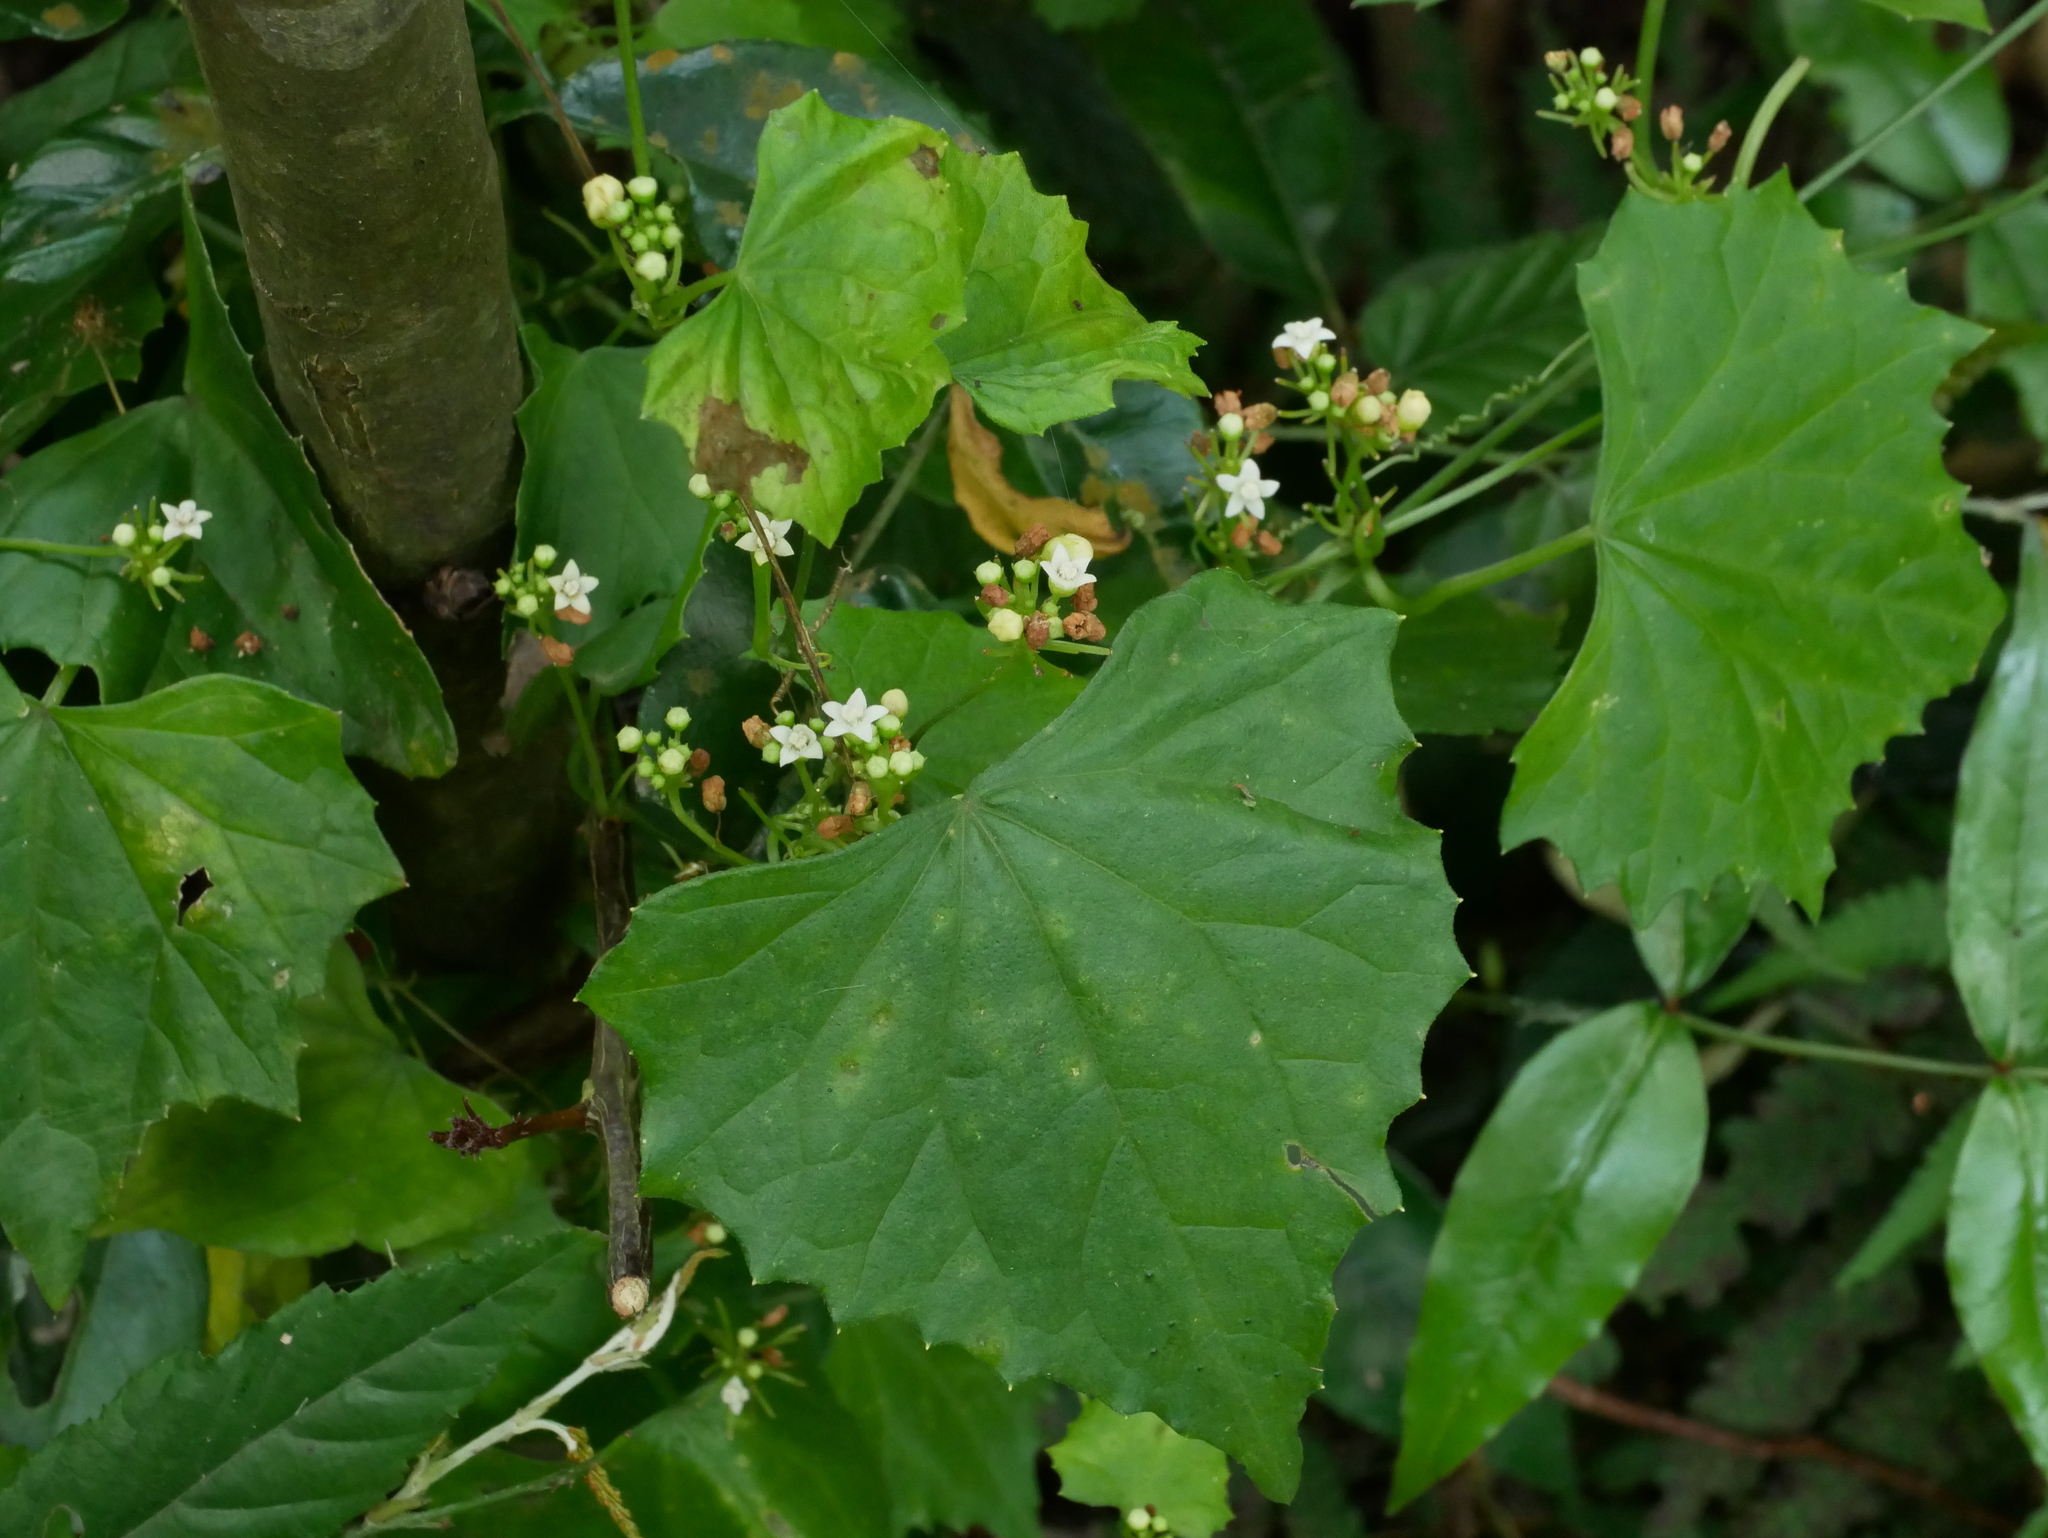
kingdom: Plantae
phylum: Tracheophyta
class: Magnoliopsida
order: Cucurbitales
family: Cucurbitaceae
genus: Zehneria
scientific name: Zehneria guamensis
